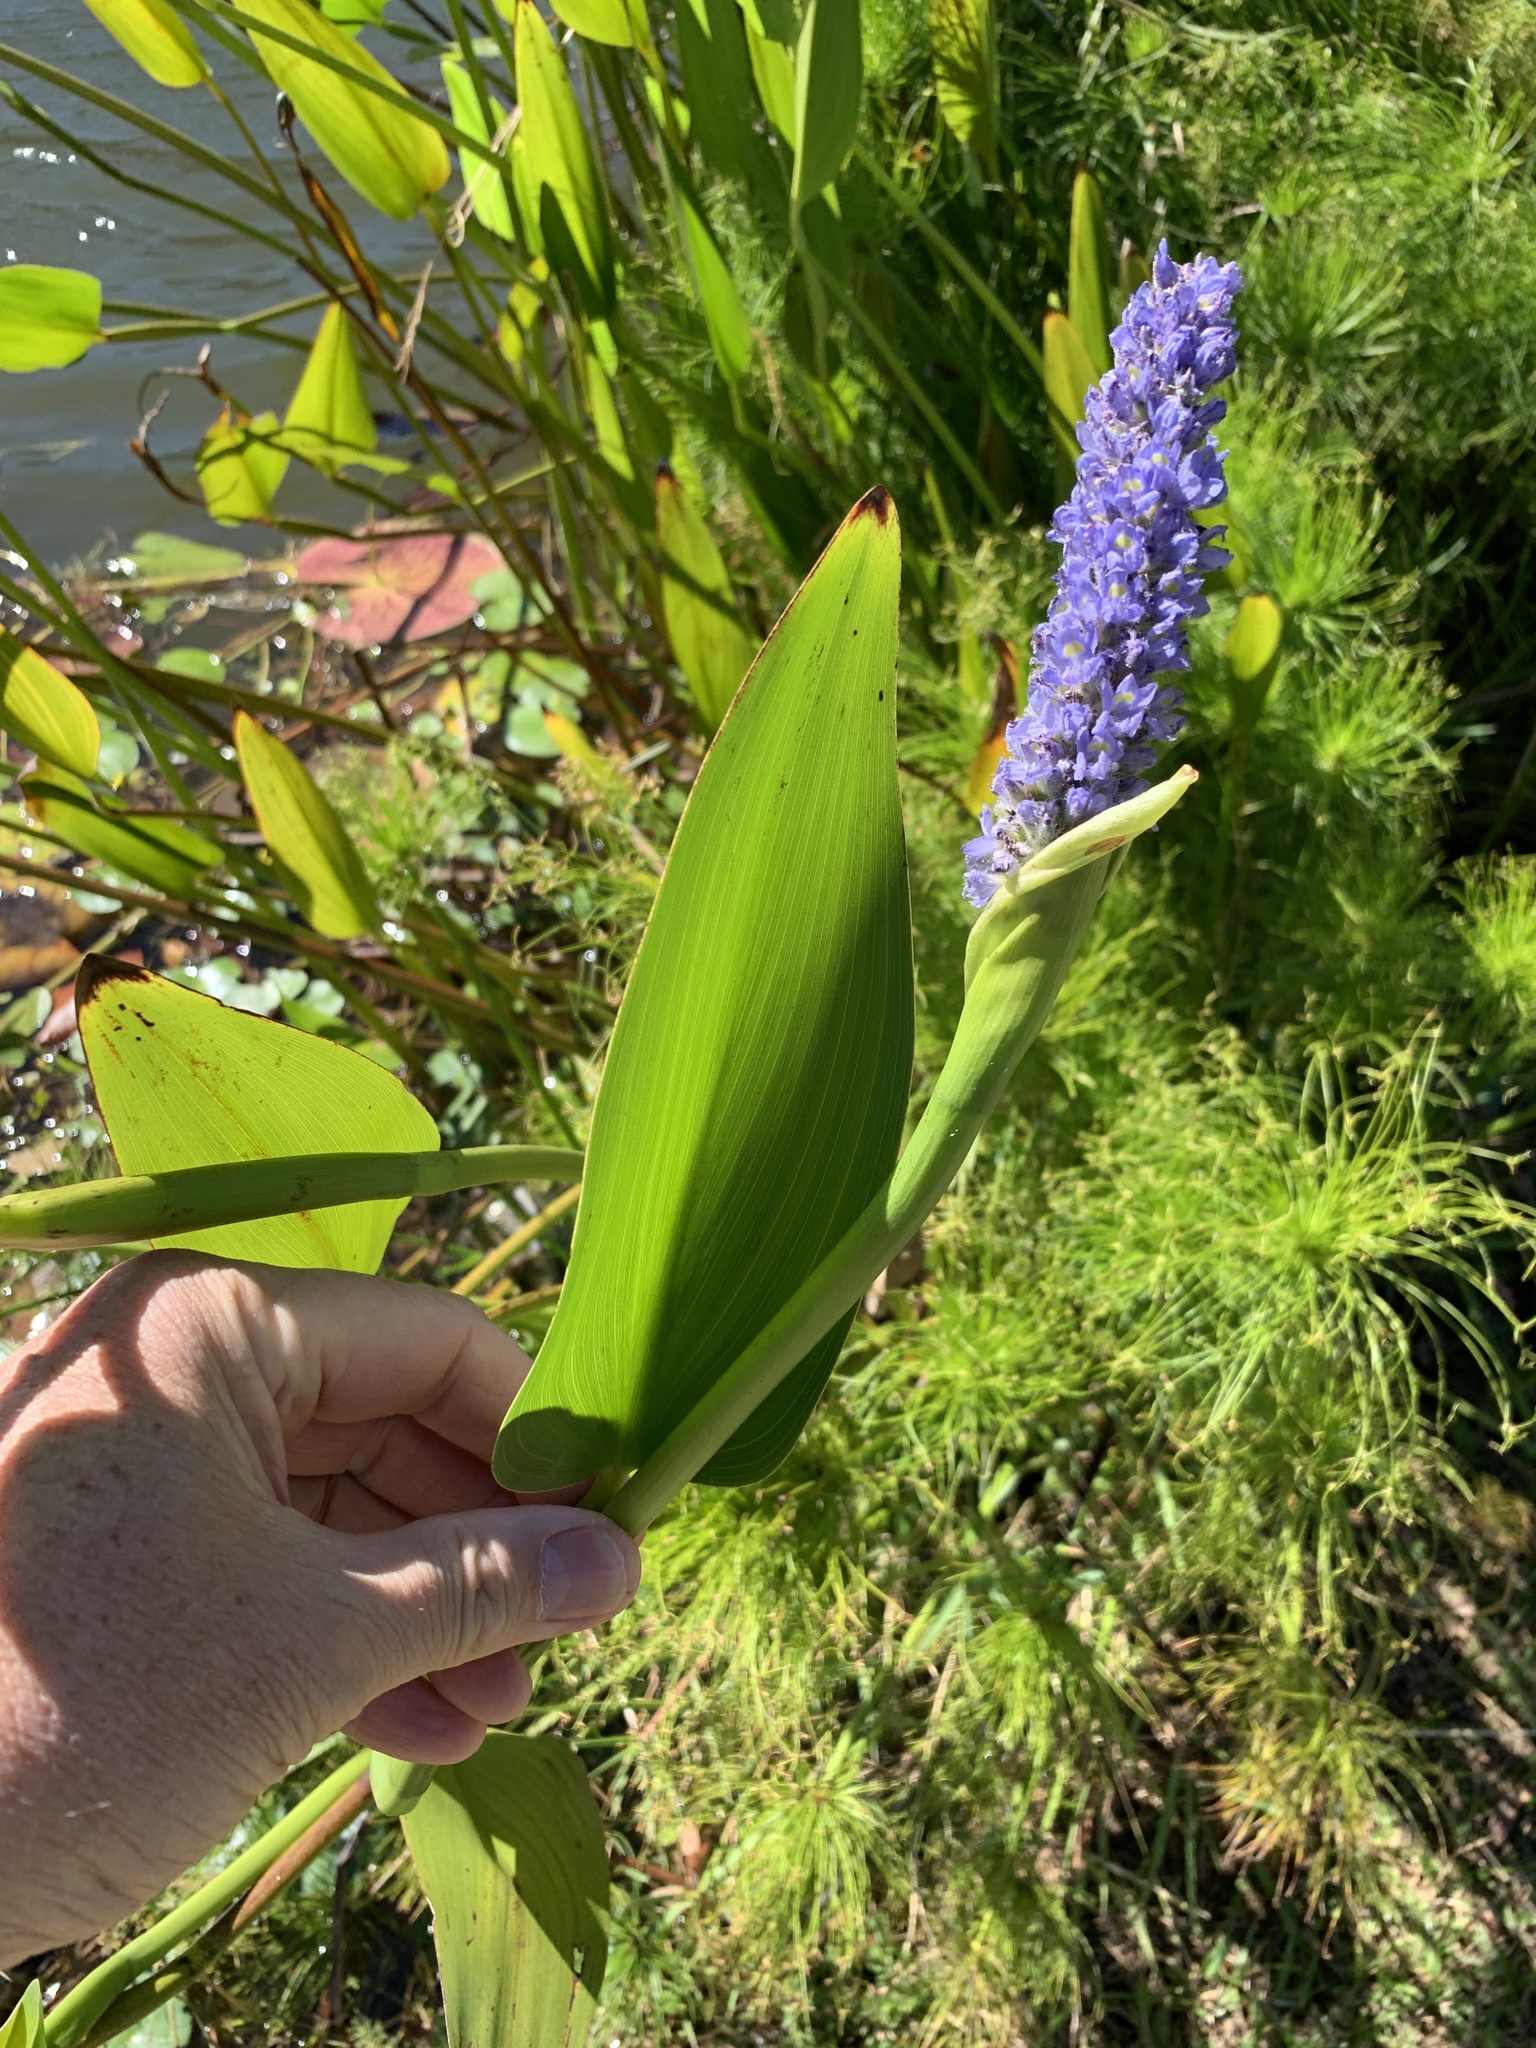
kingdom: Plantae
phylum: Tracheophyta
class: Liliopsida
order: Commelinales
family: Pontederiaceae
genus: Pontederia
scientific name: Pontederia cordata
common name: Pickerelweed
